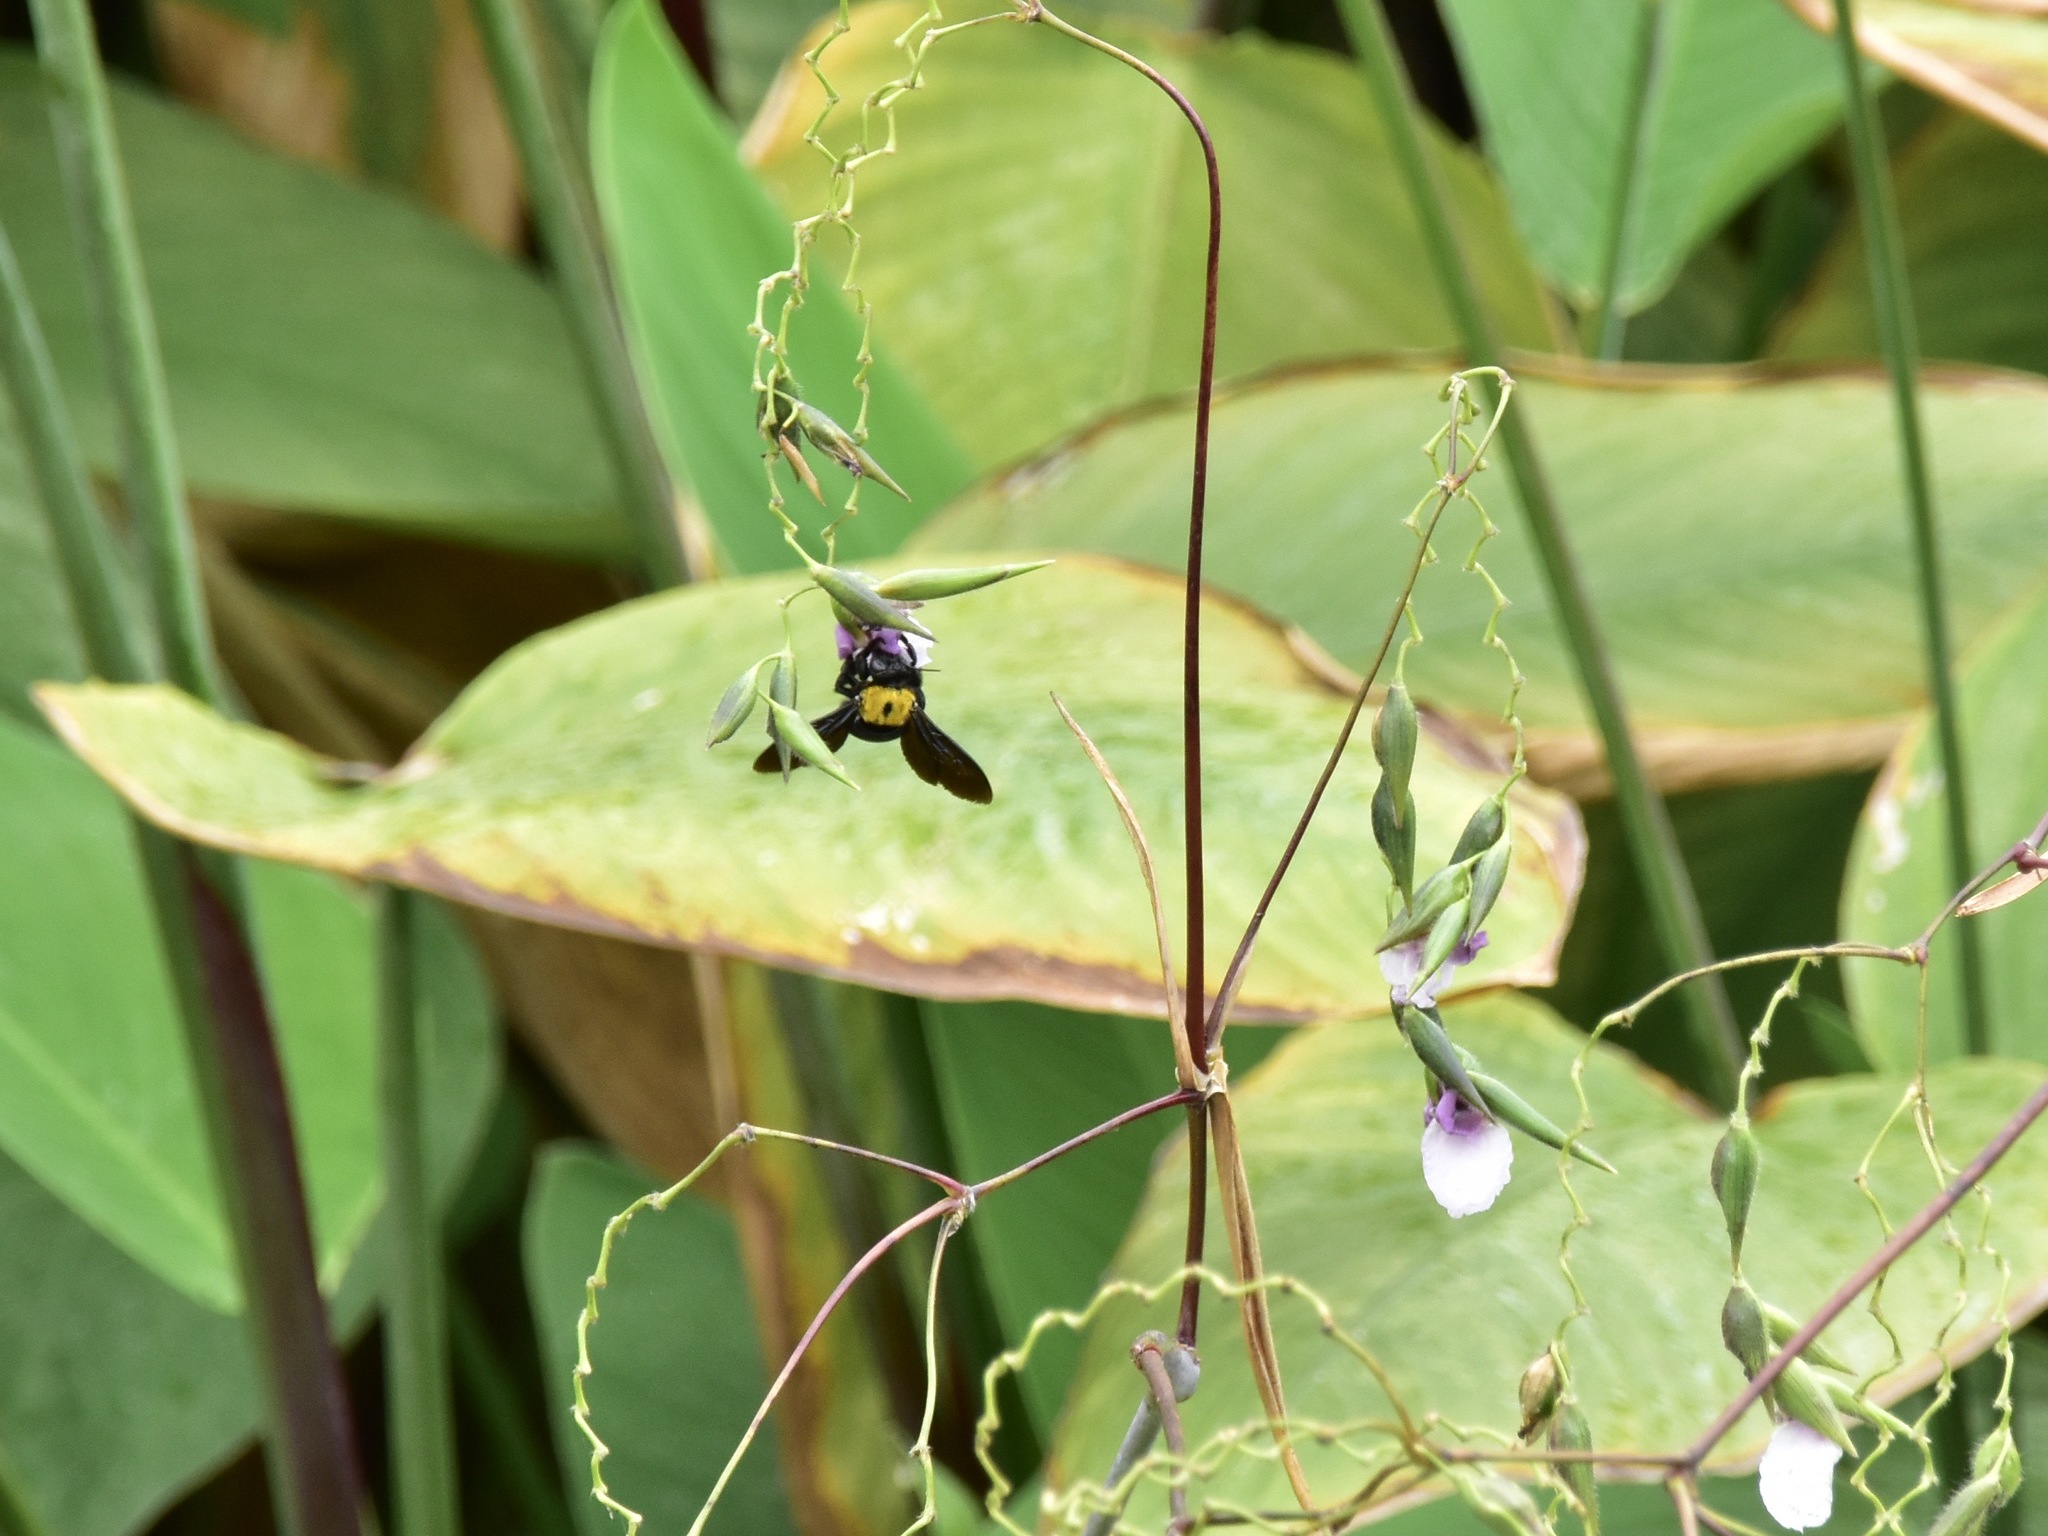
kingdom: Animalia
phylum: Arthropoda
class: Insecta
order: Hymenoptera
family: Apidae
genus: Xylocopa
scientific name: Xylocopa aestuans
